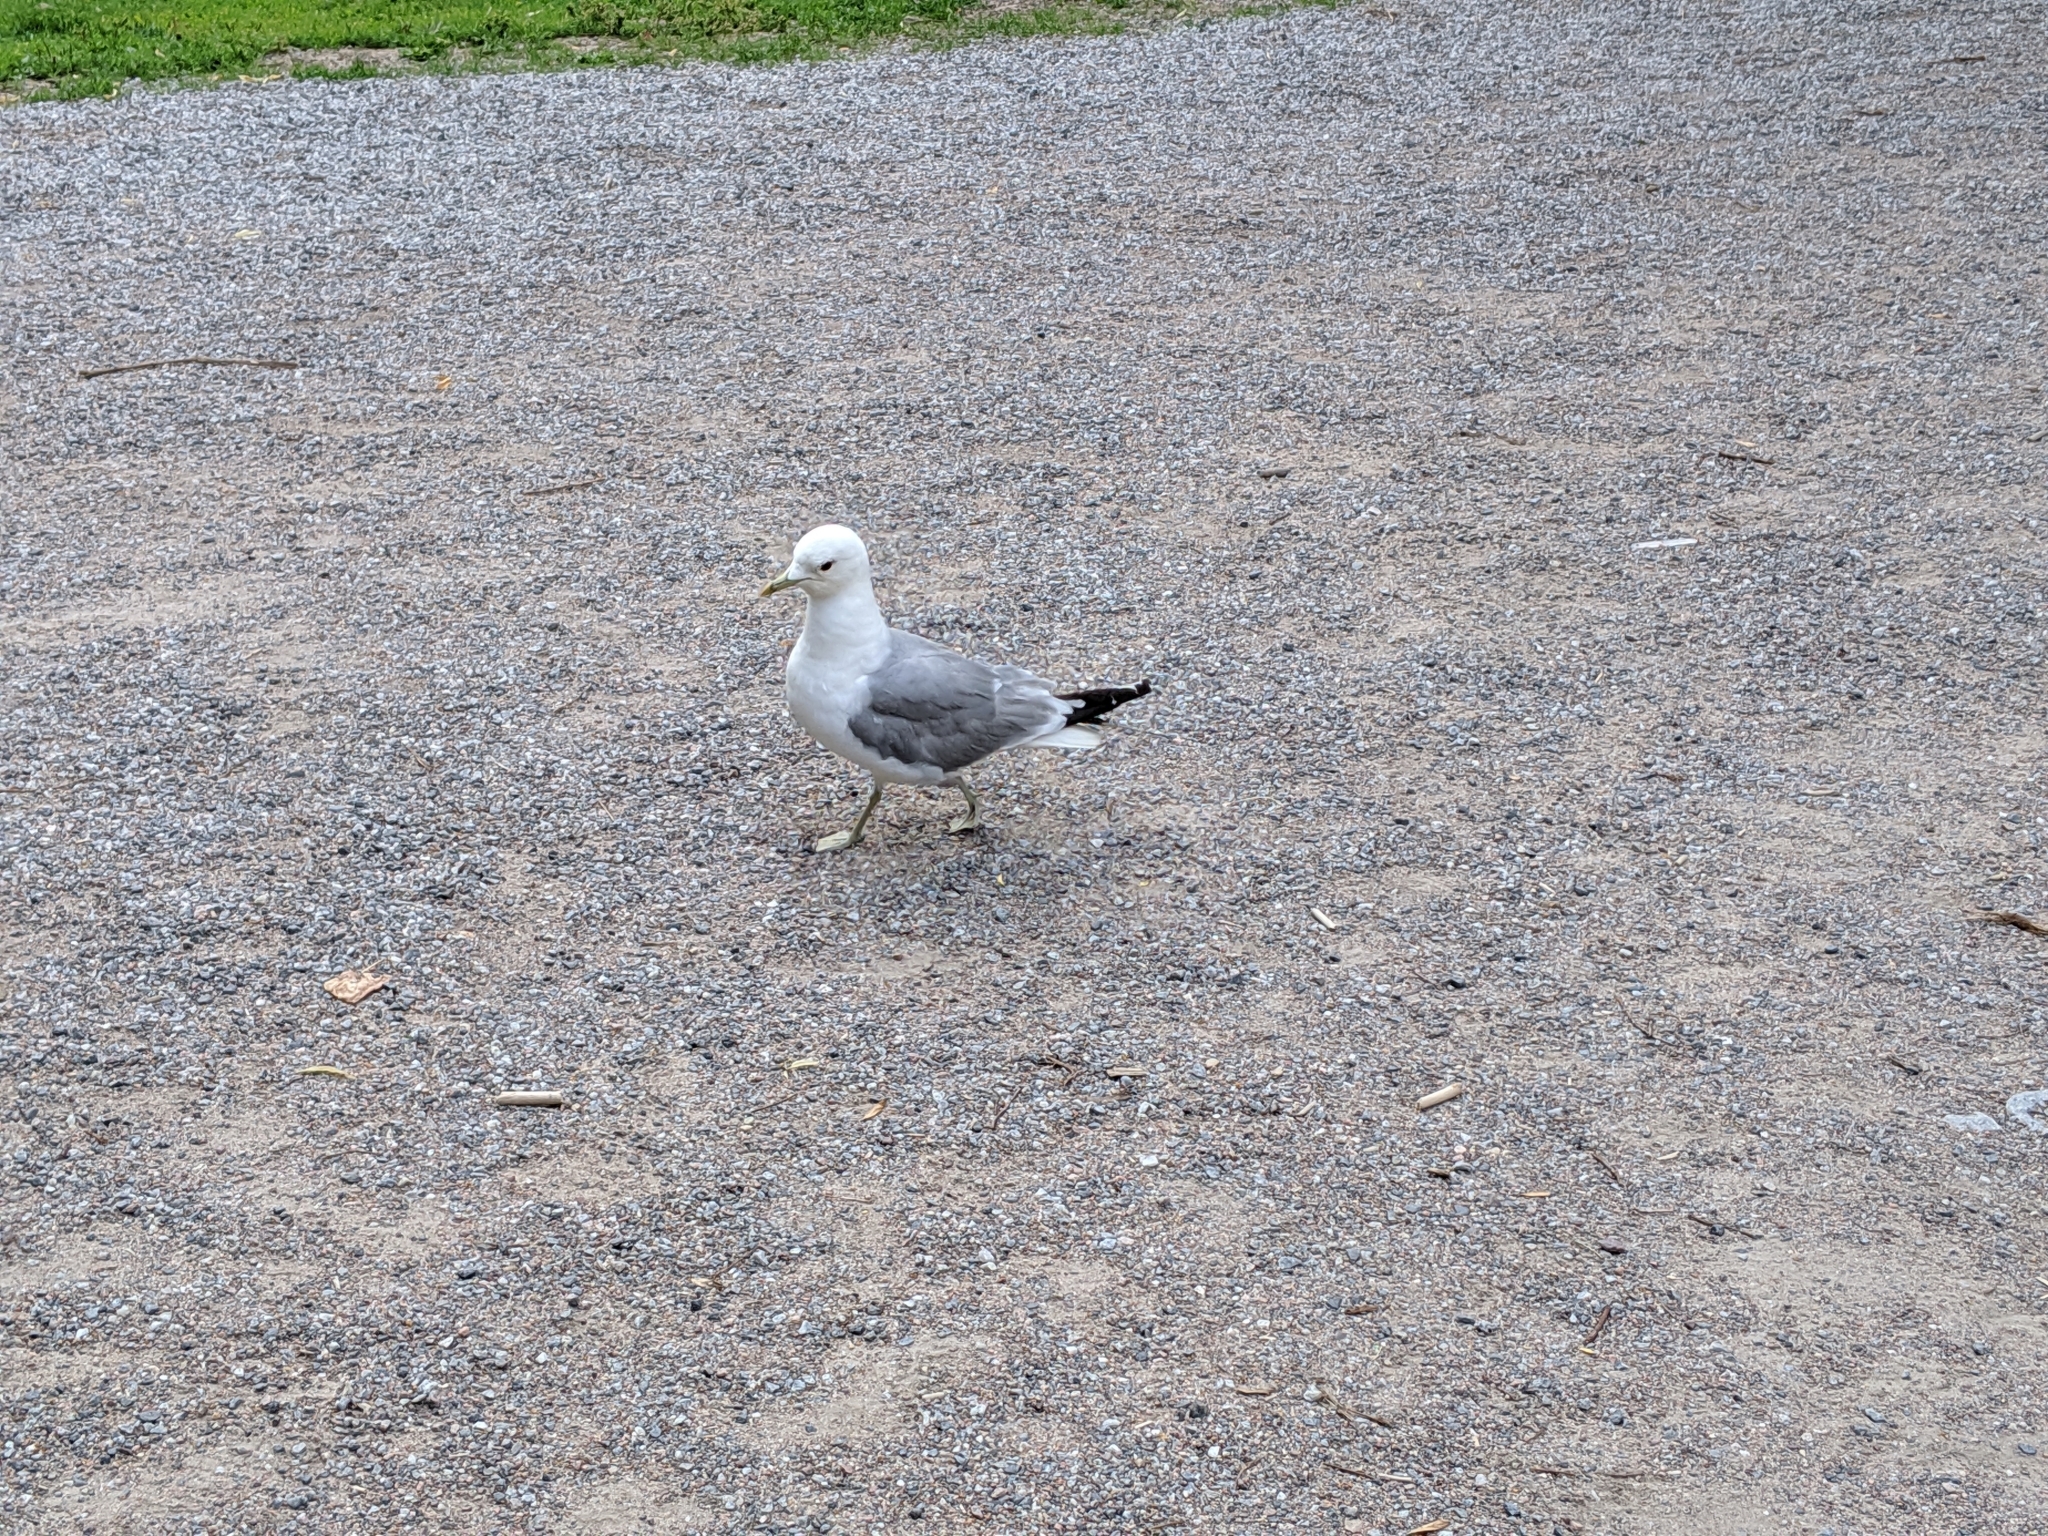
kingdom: Animalia
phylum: Chordata
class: Aves
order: Charadriiformes
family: Laridae
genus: Larus
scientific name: Larus canus
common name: Mew gull
